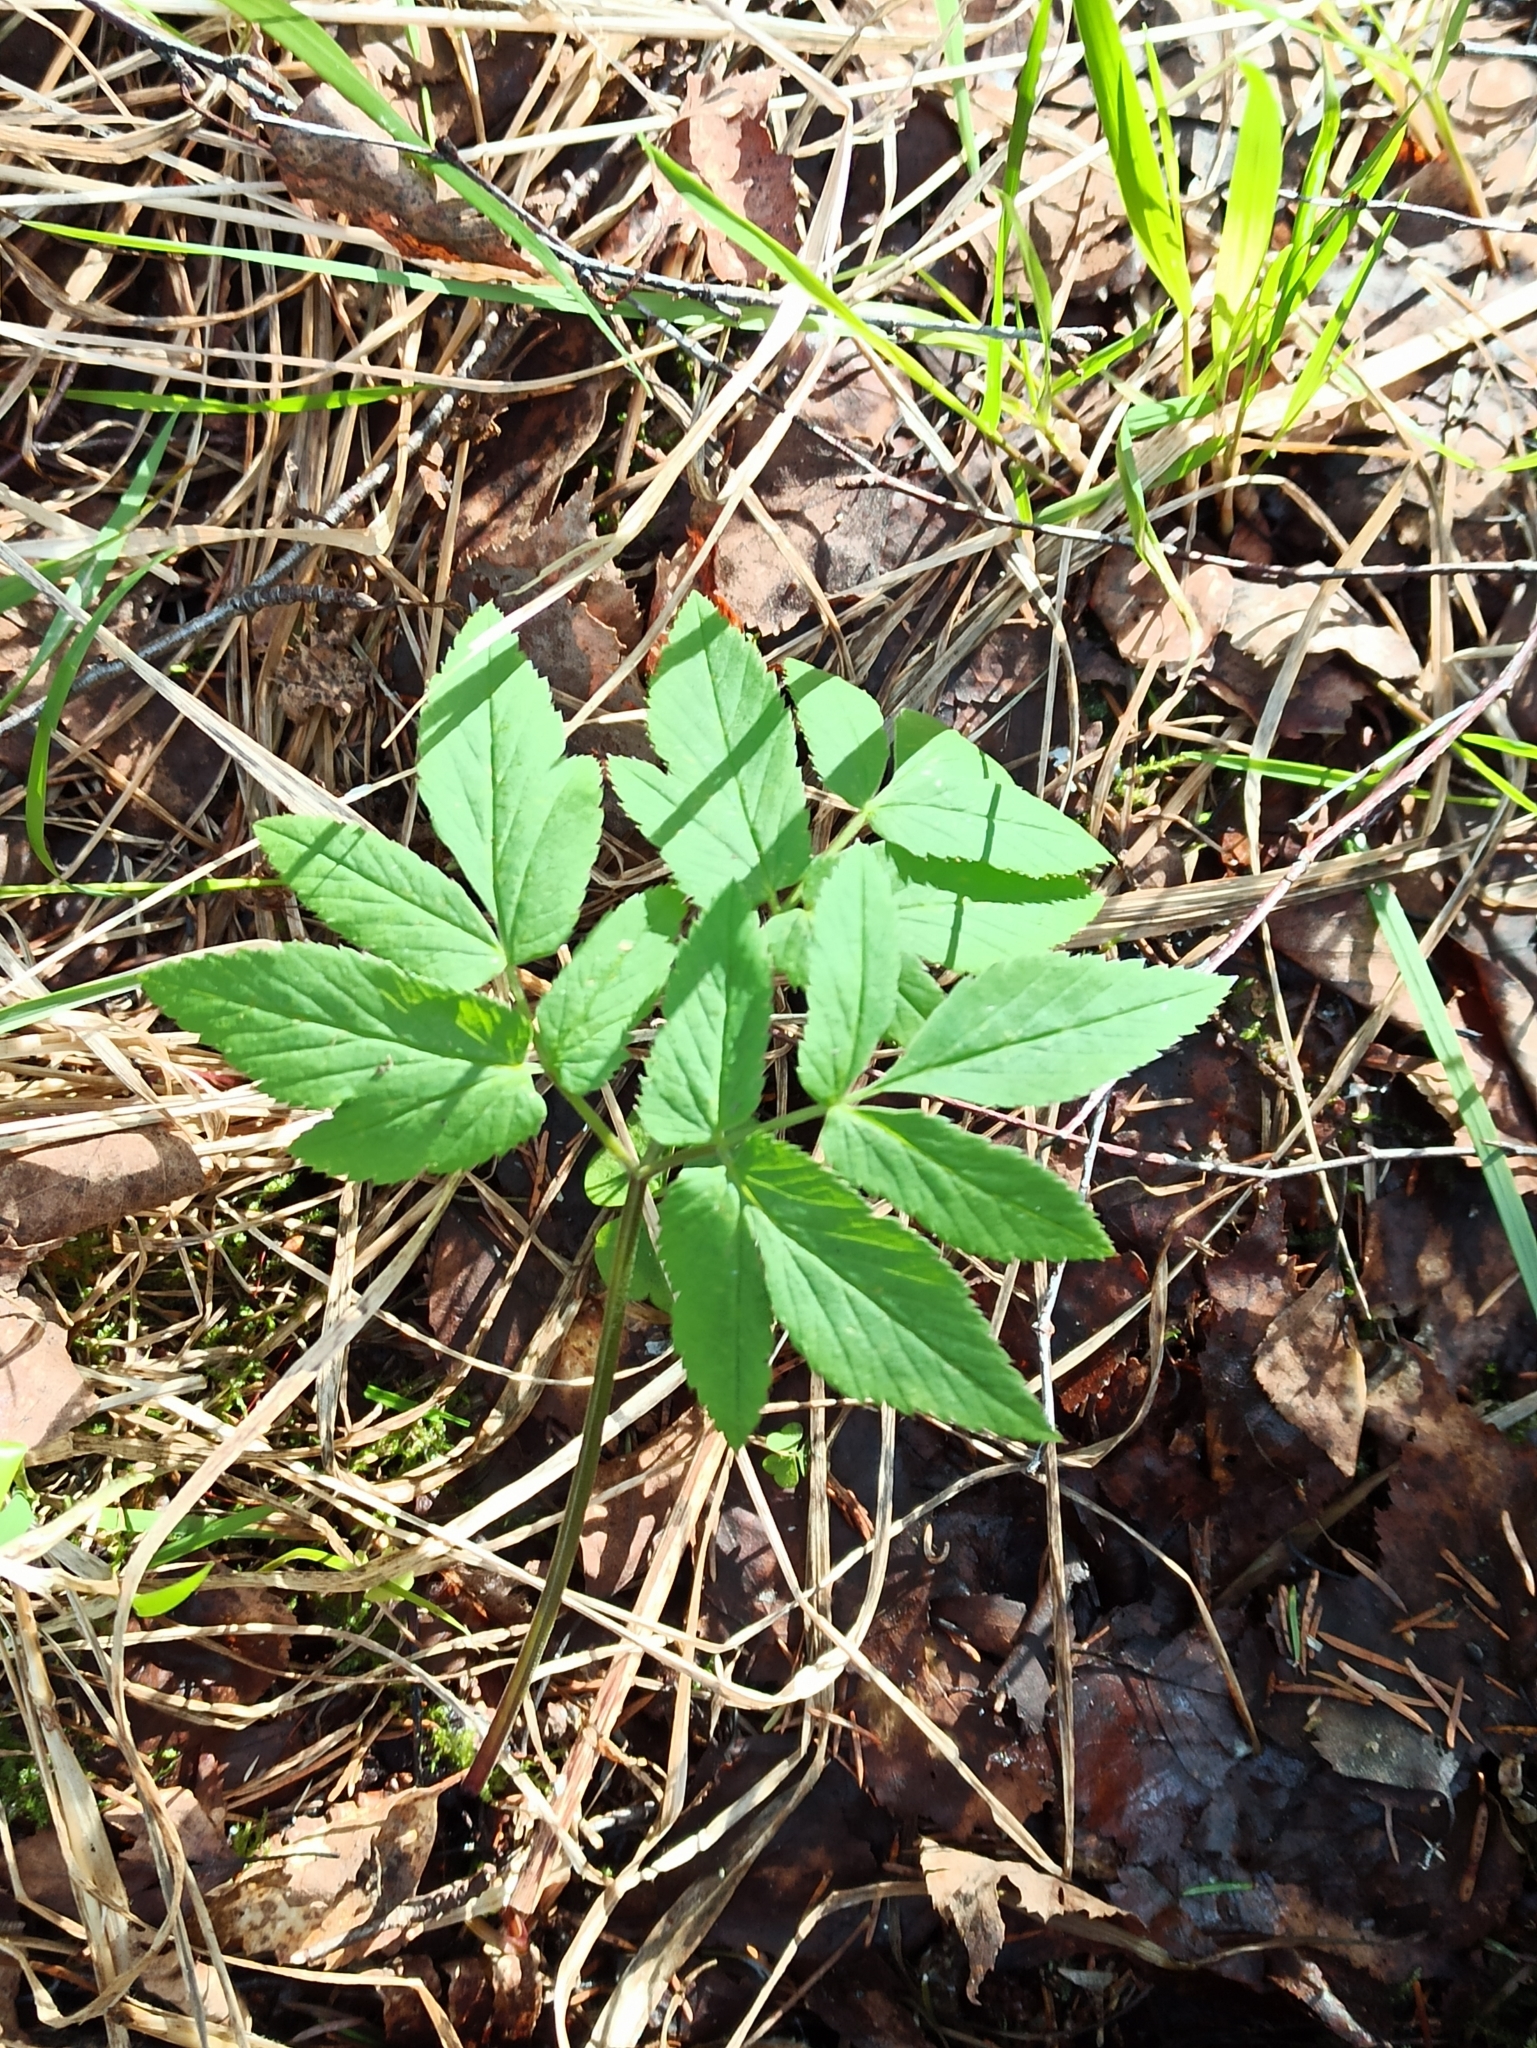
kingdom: Plantae
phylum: Tracheophyta
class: Magnoliopsida
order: Apiales
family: Apiaceae
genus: Aegopodium
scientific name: Aegopodium podagraria
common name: Ground-elder
